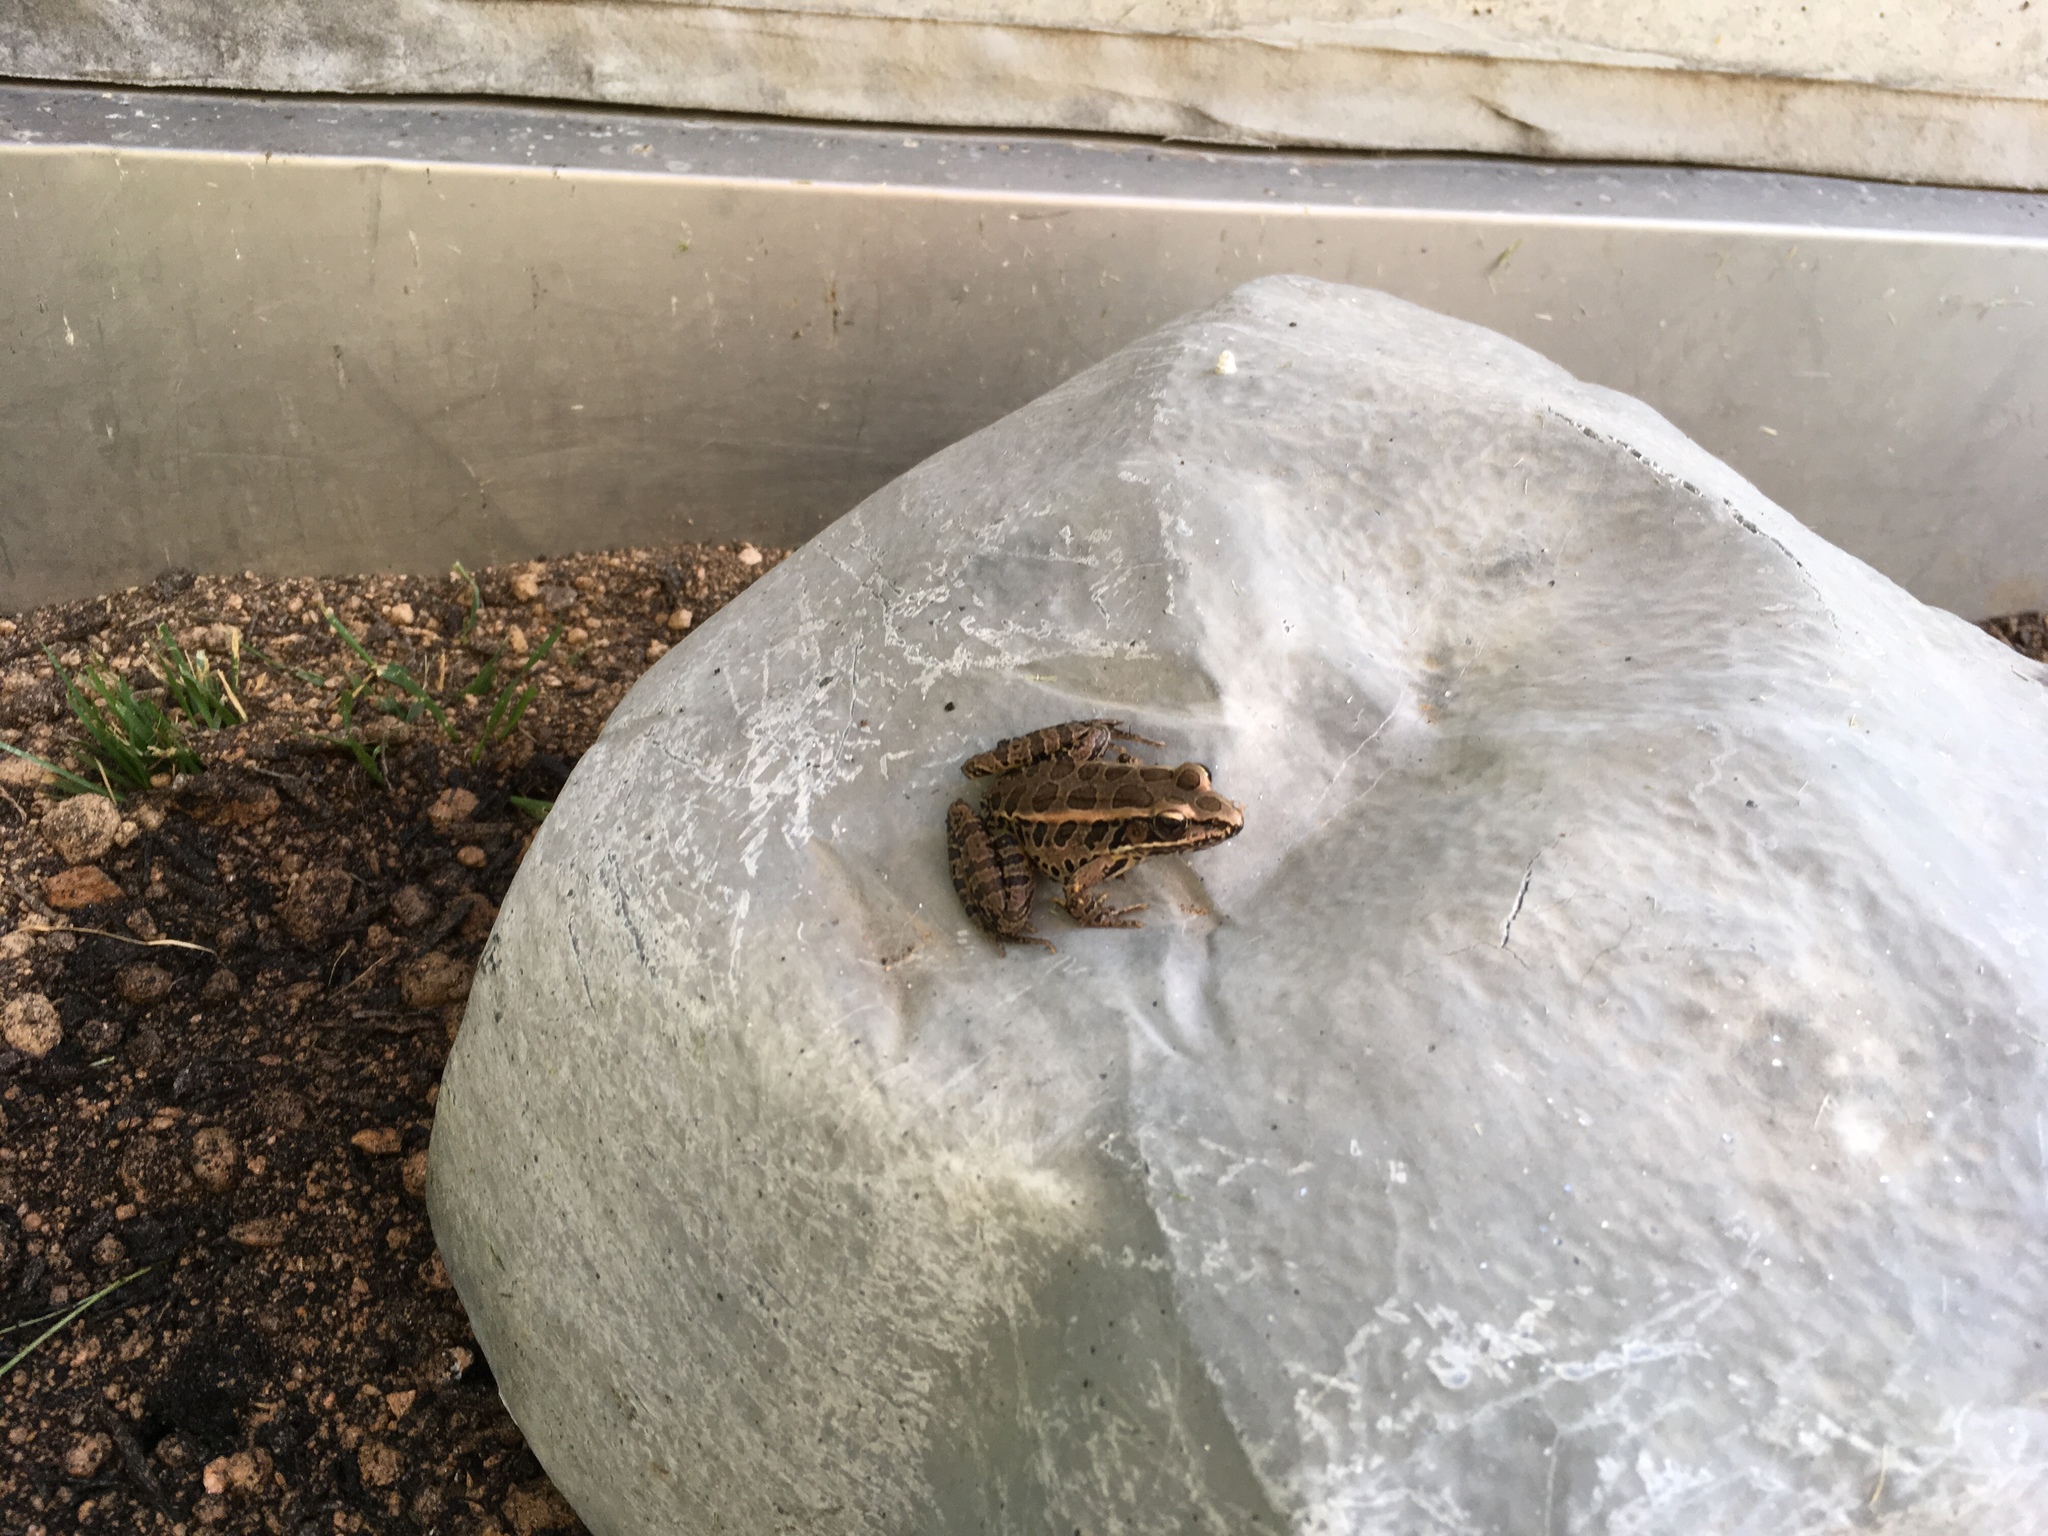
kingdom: Animalia
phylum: Chordata
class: Amphibia
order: Anura
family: Ranidae
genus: Lithobates
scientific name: Lithobates palustris
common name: Pickerel frog
